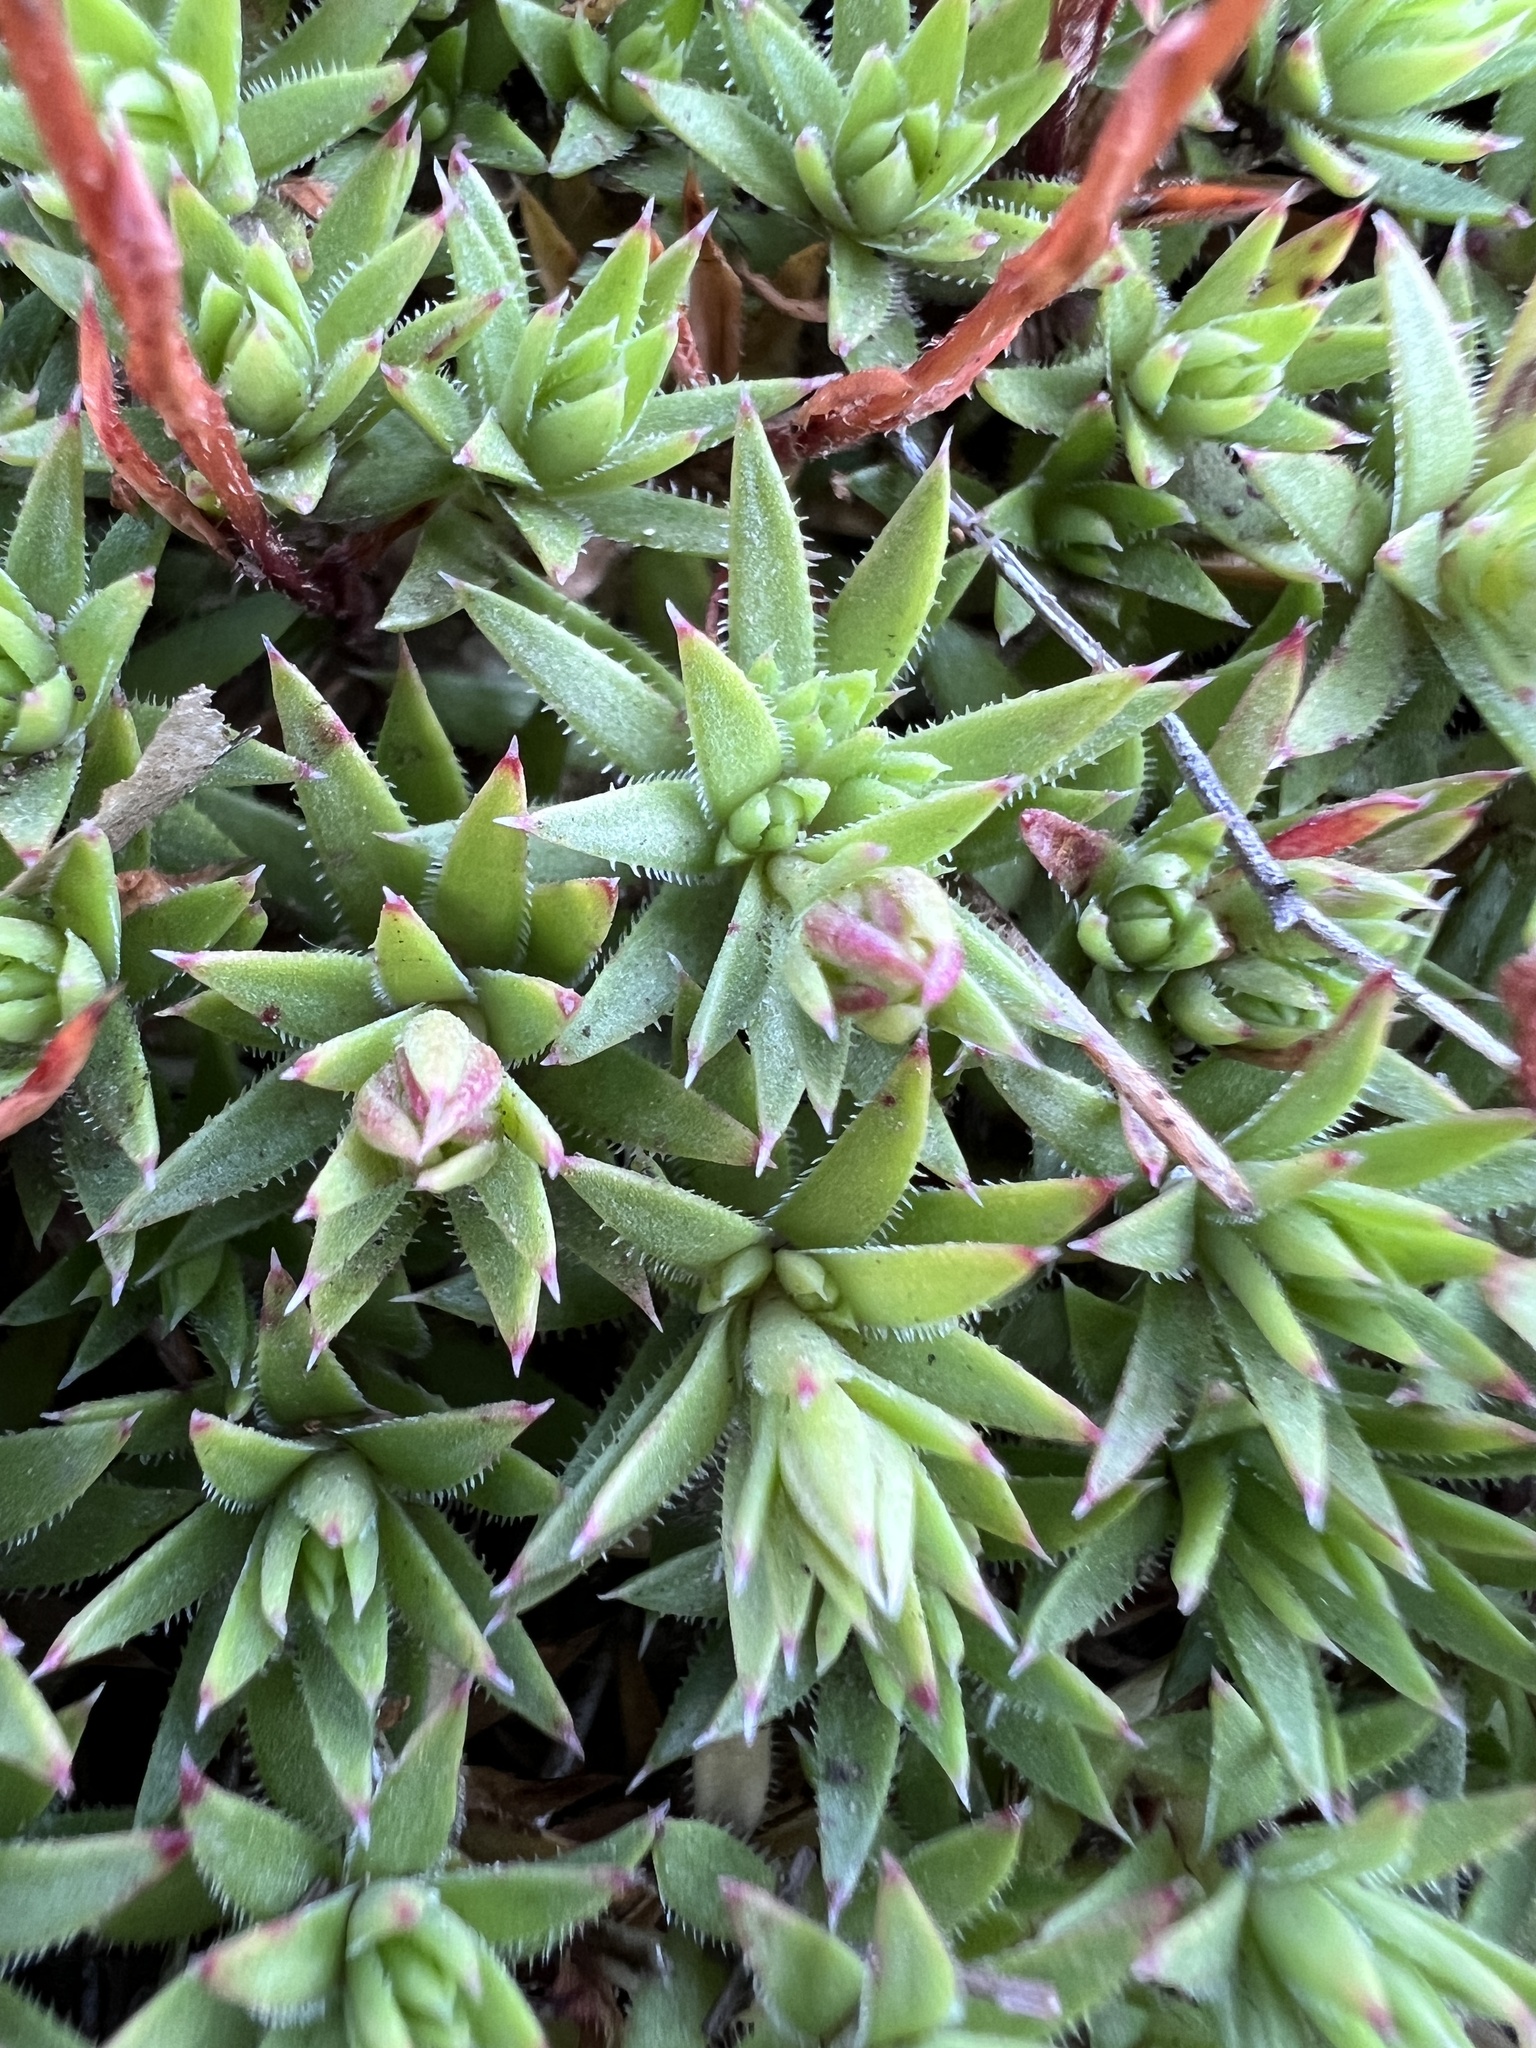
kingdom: Plantae
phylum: Tracheophyta
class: Magnoliopsida
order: Saxifragales
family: Saxifragaceae
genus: Saxifraga
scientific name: Saxifraga bronchialis
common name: Matted saxifrage
